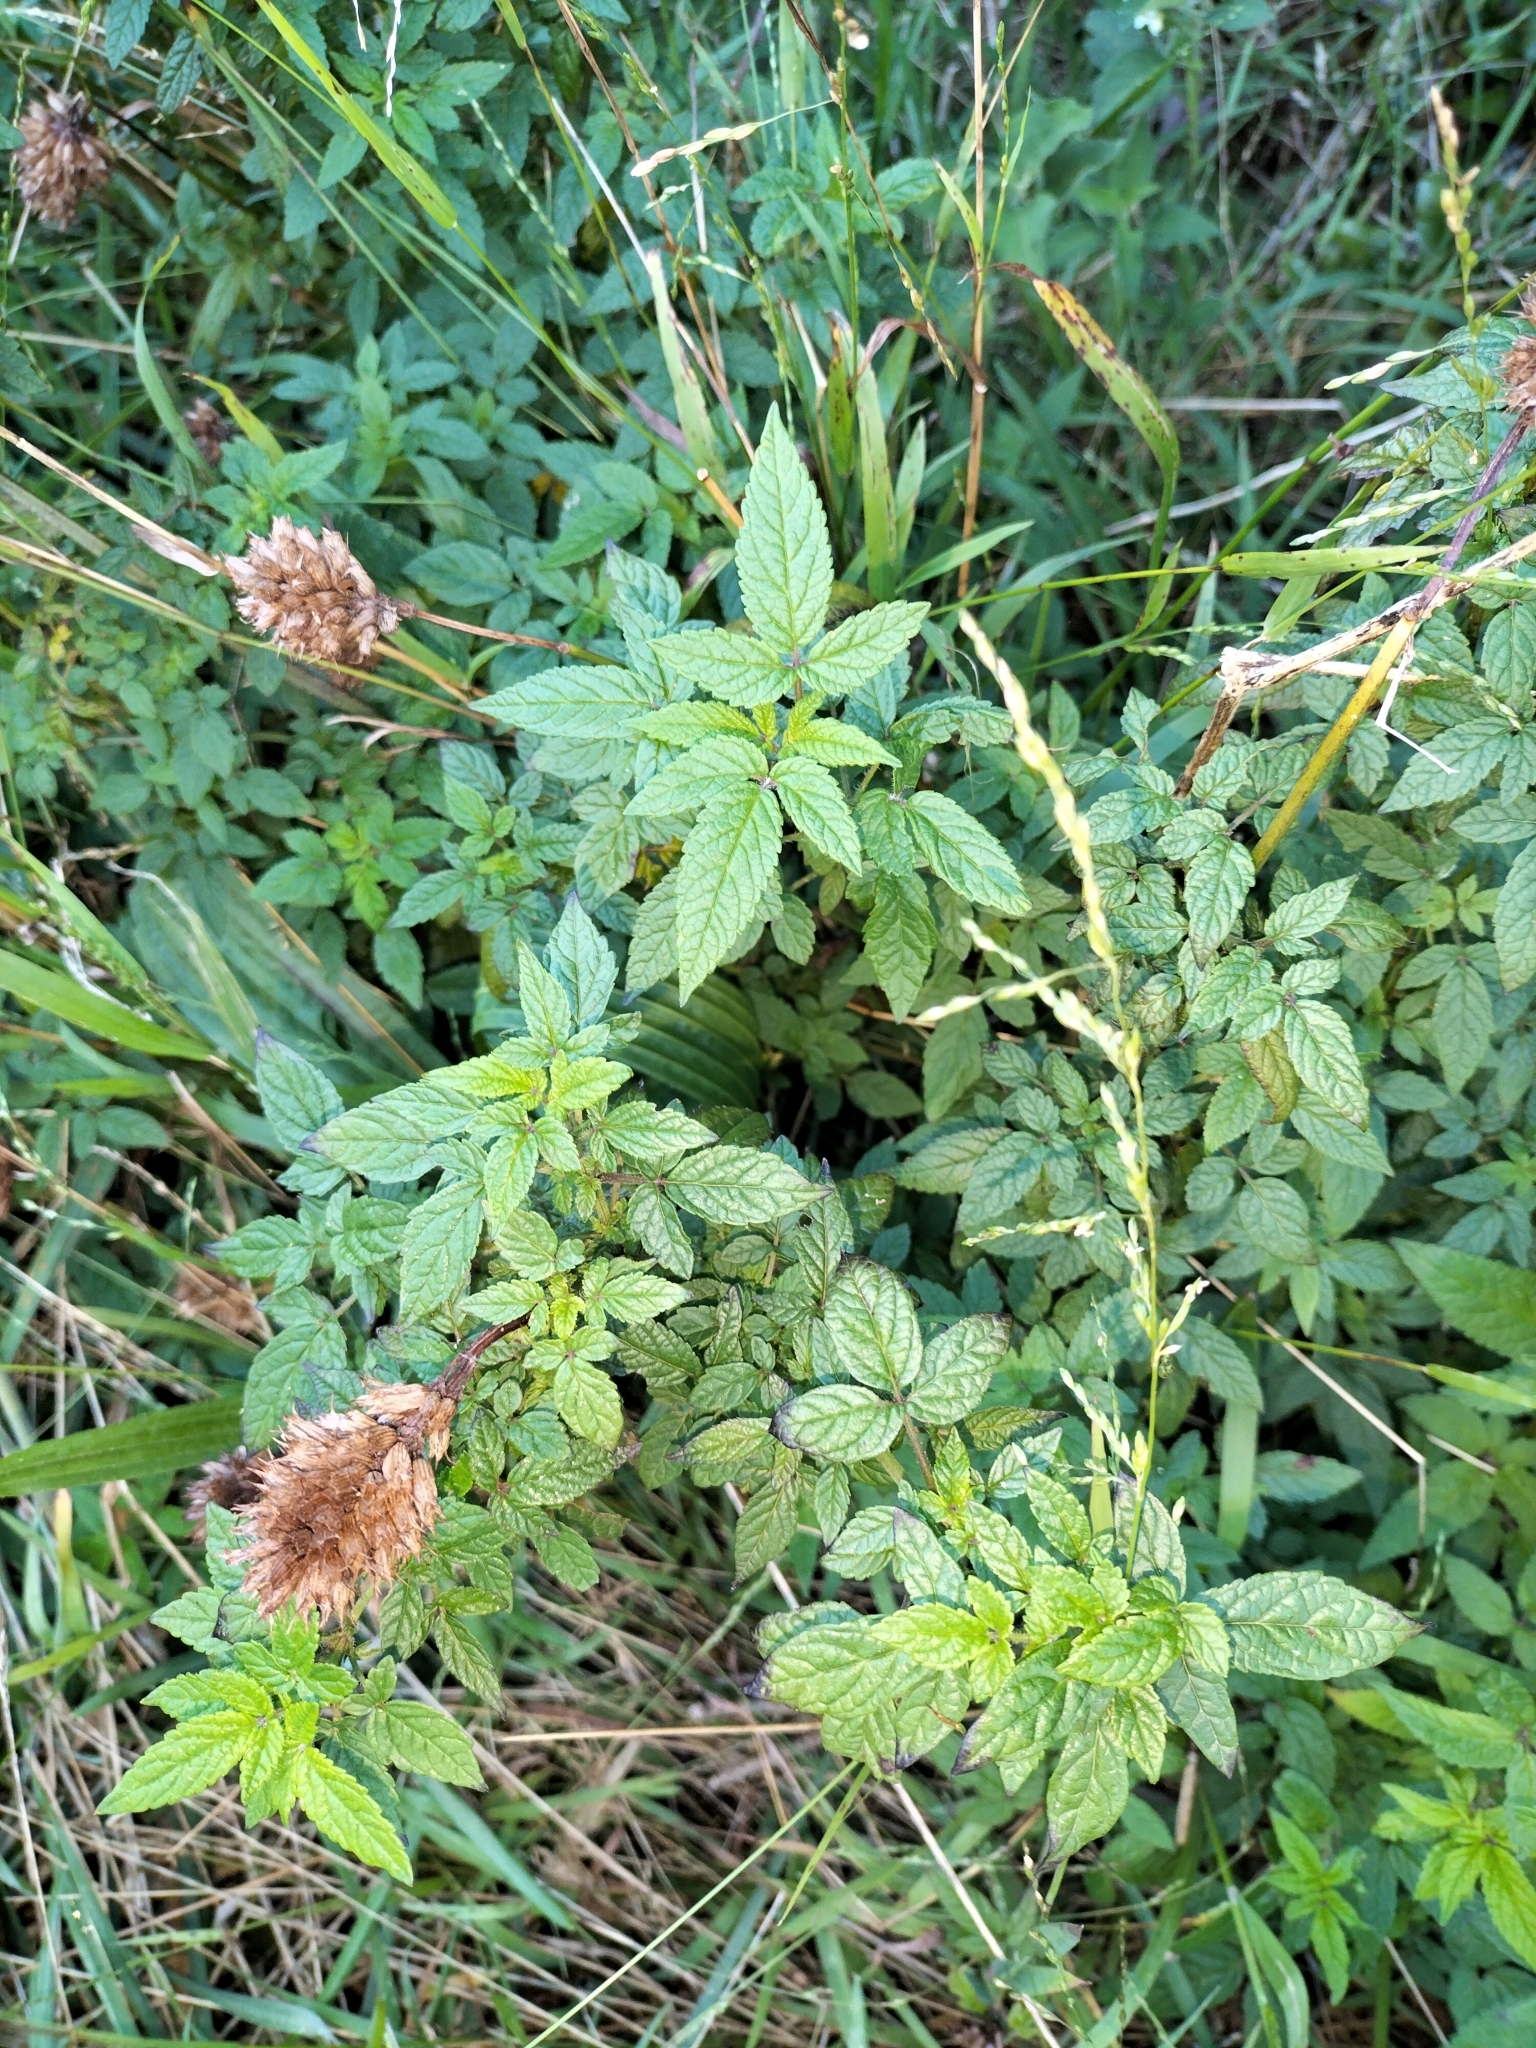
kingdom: Plantae
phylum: Tracheophyta
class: Magnoliopsida
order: Lamiales
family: Lamiaceae
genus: Cedronella
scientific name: Cedronella canariensis
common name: Canary islands balm
